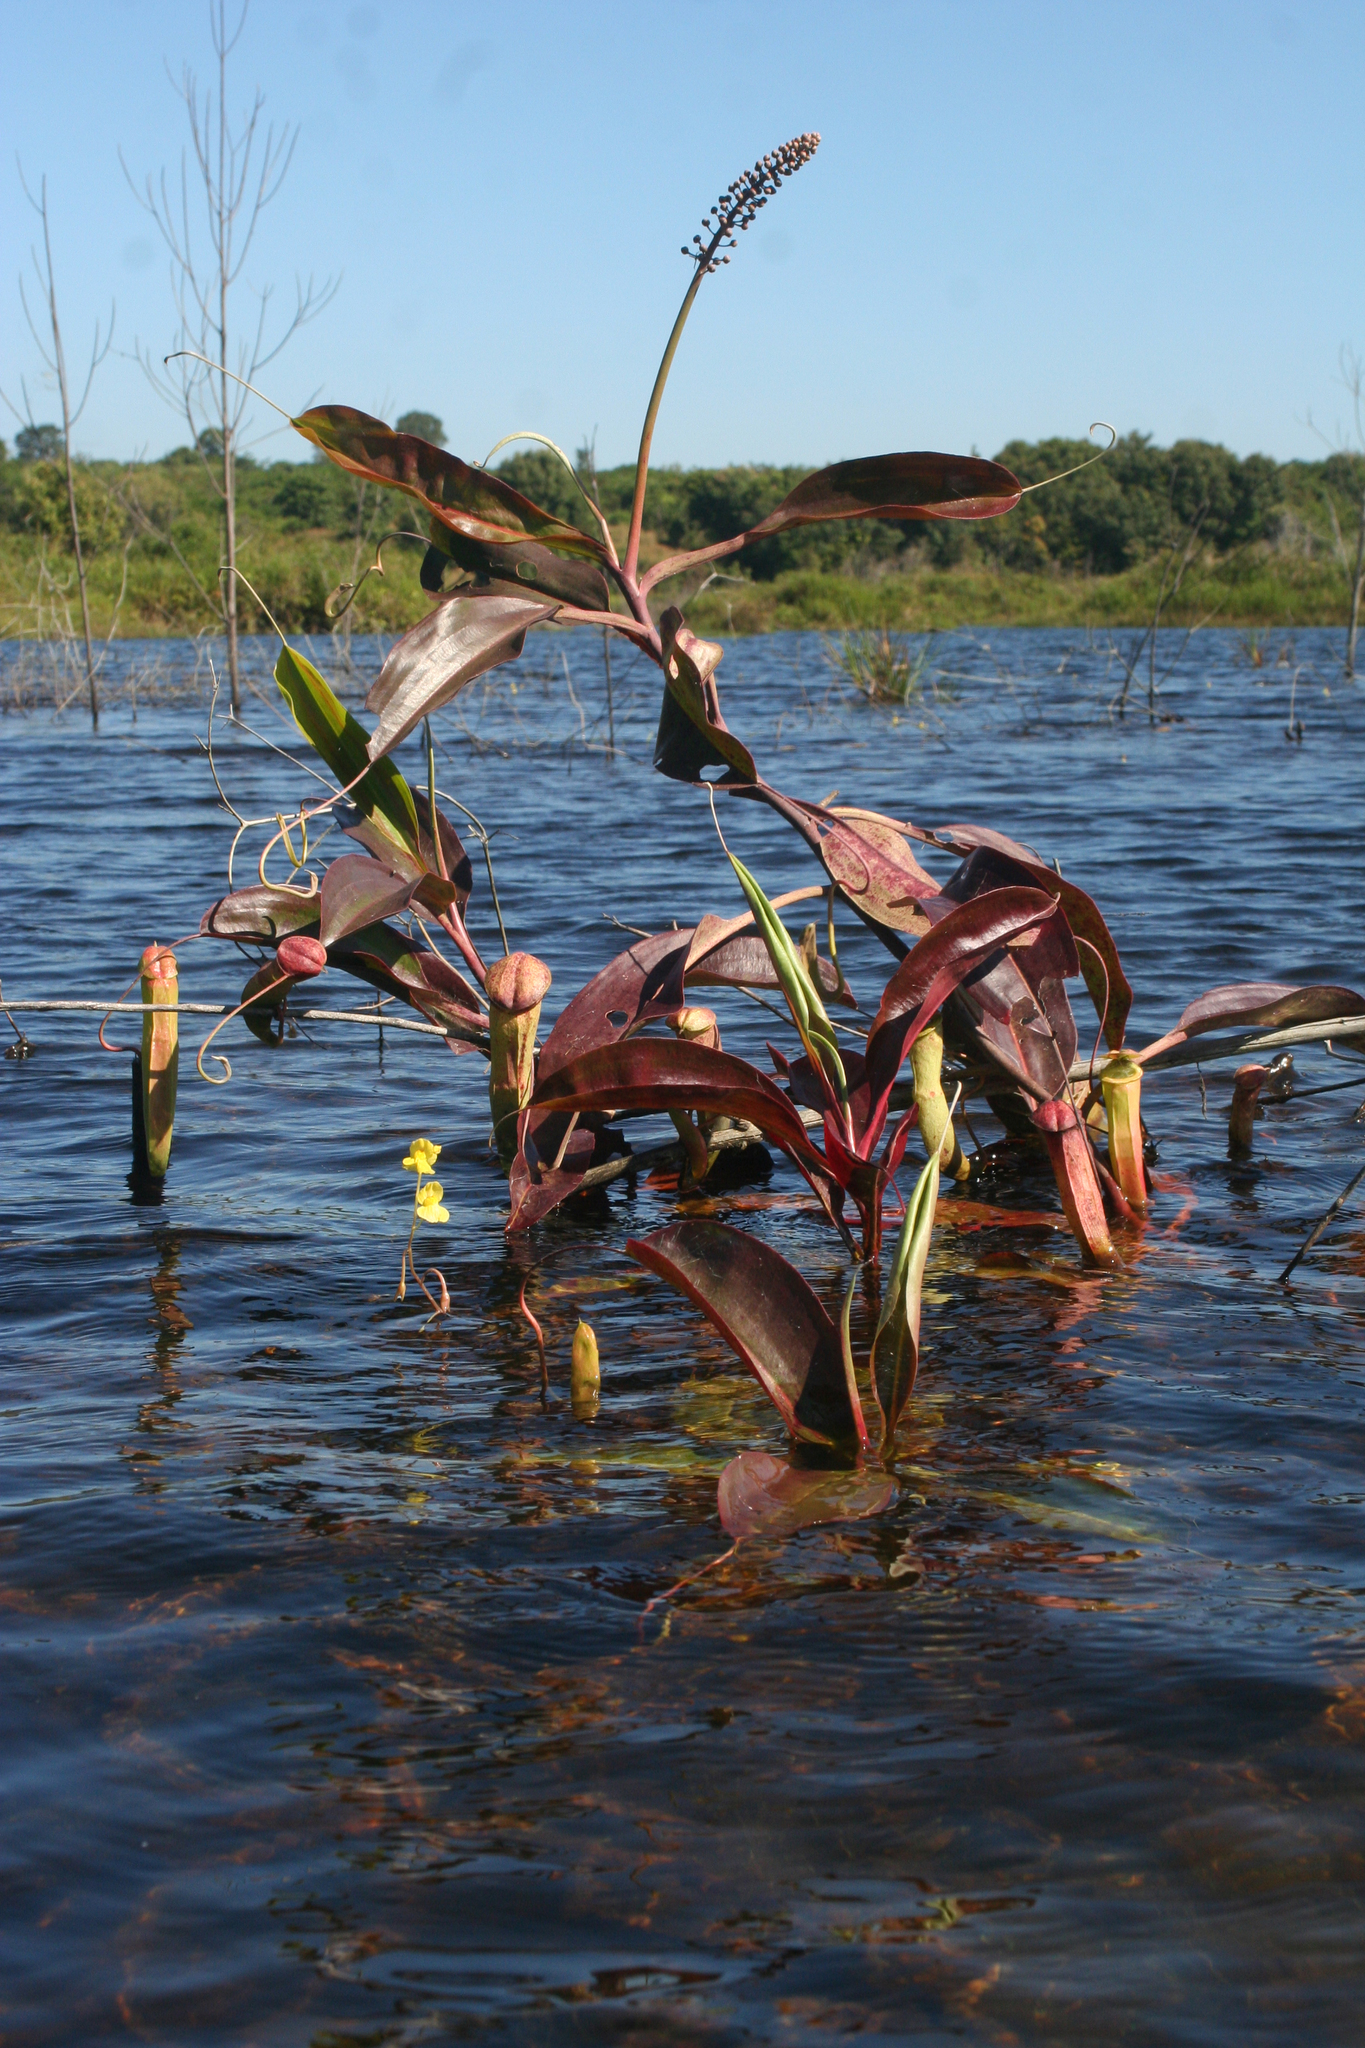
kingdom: Plantae
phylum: Tracheophyta
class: Magnoliopsida
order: Lamiales
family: Lentibulariaceae
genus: Utricularia
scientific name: Utricularia aurea
